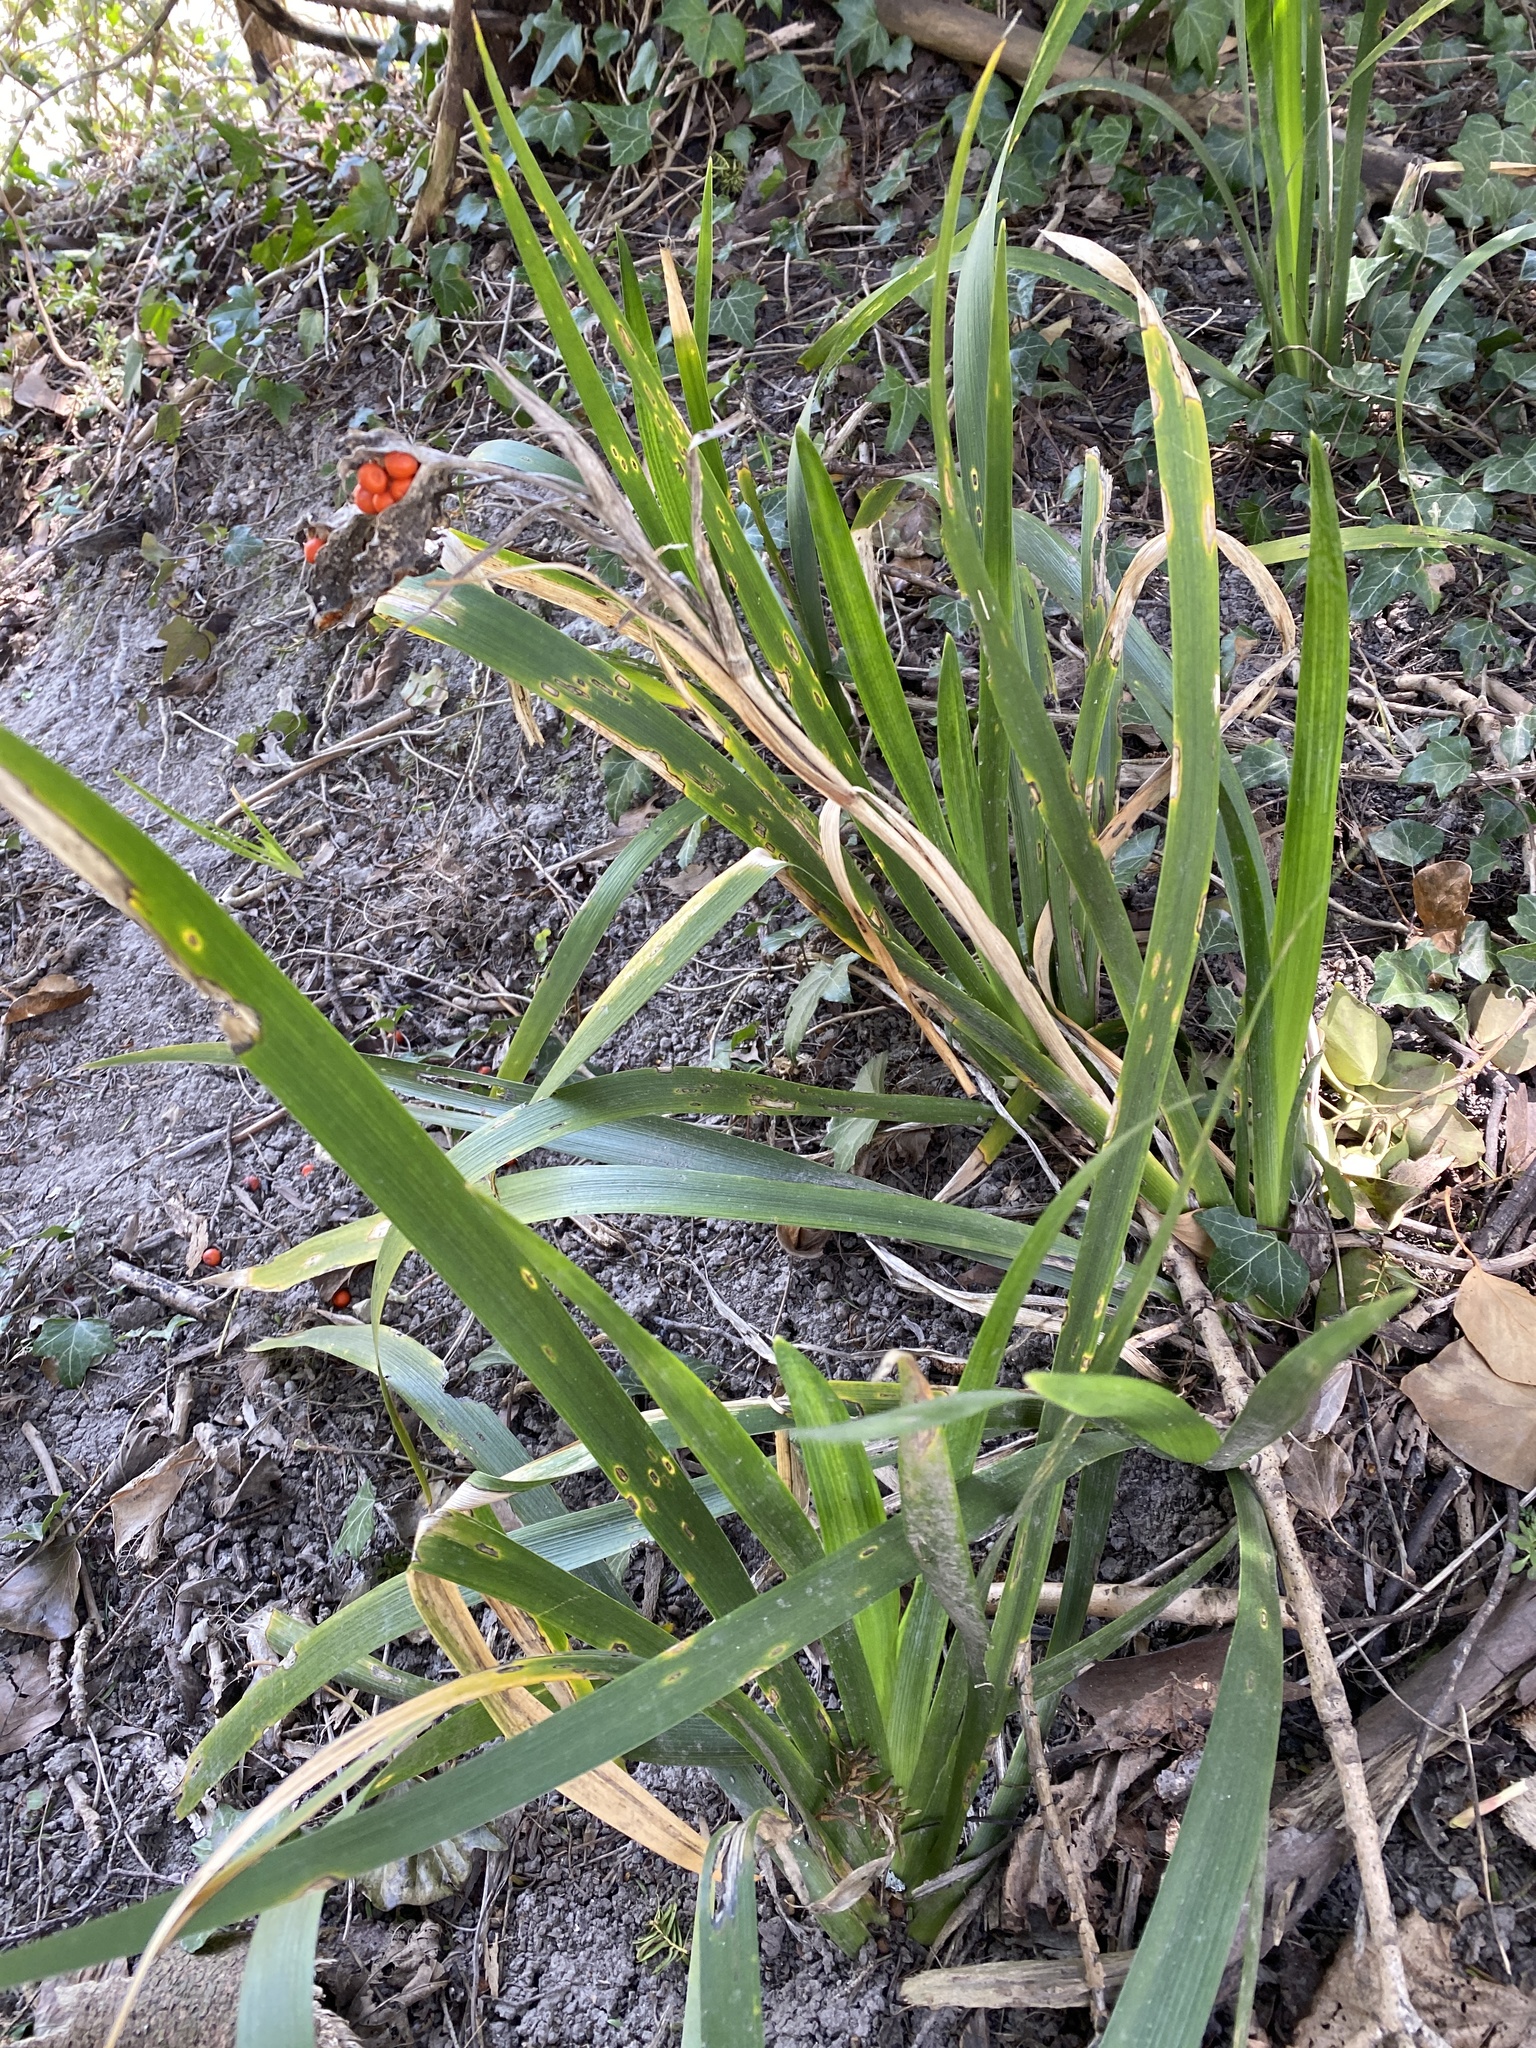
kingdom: Plantae
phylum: Tracheophyta
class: Liliopsida
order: Asparagales
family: Iridaceae
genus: Iris
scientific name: Iris foetidissima
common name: Stinking iris
